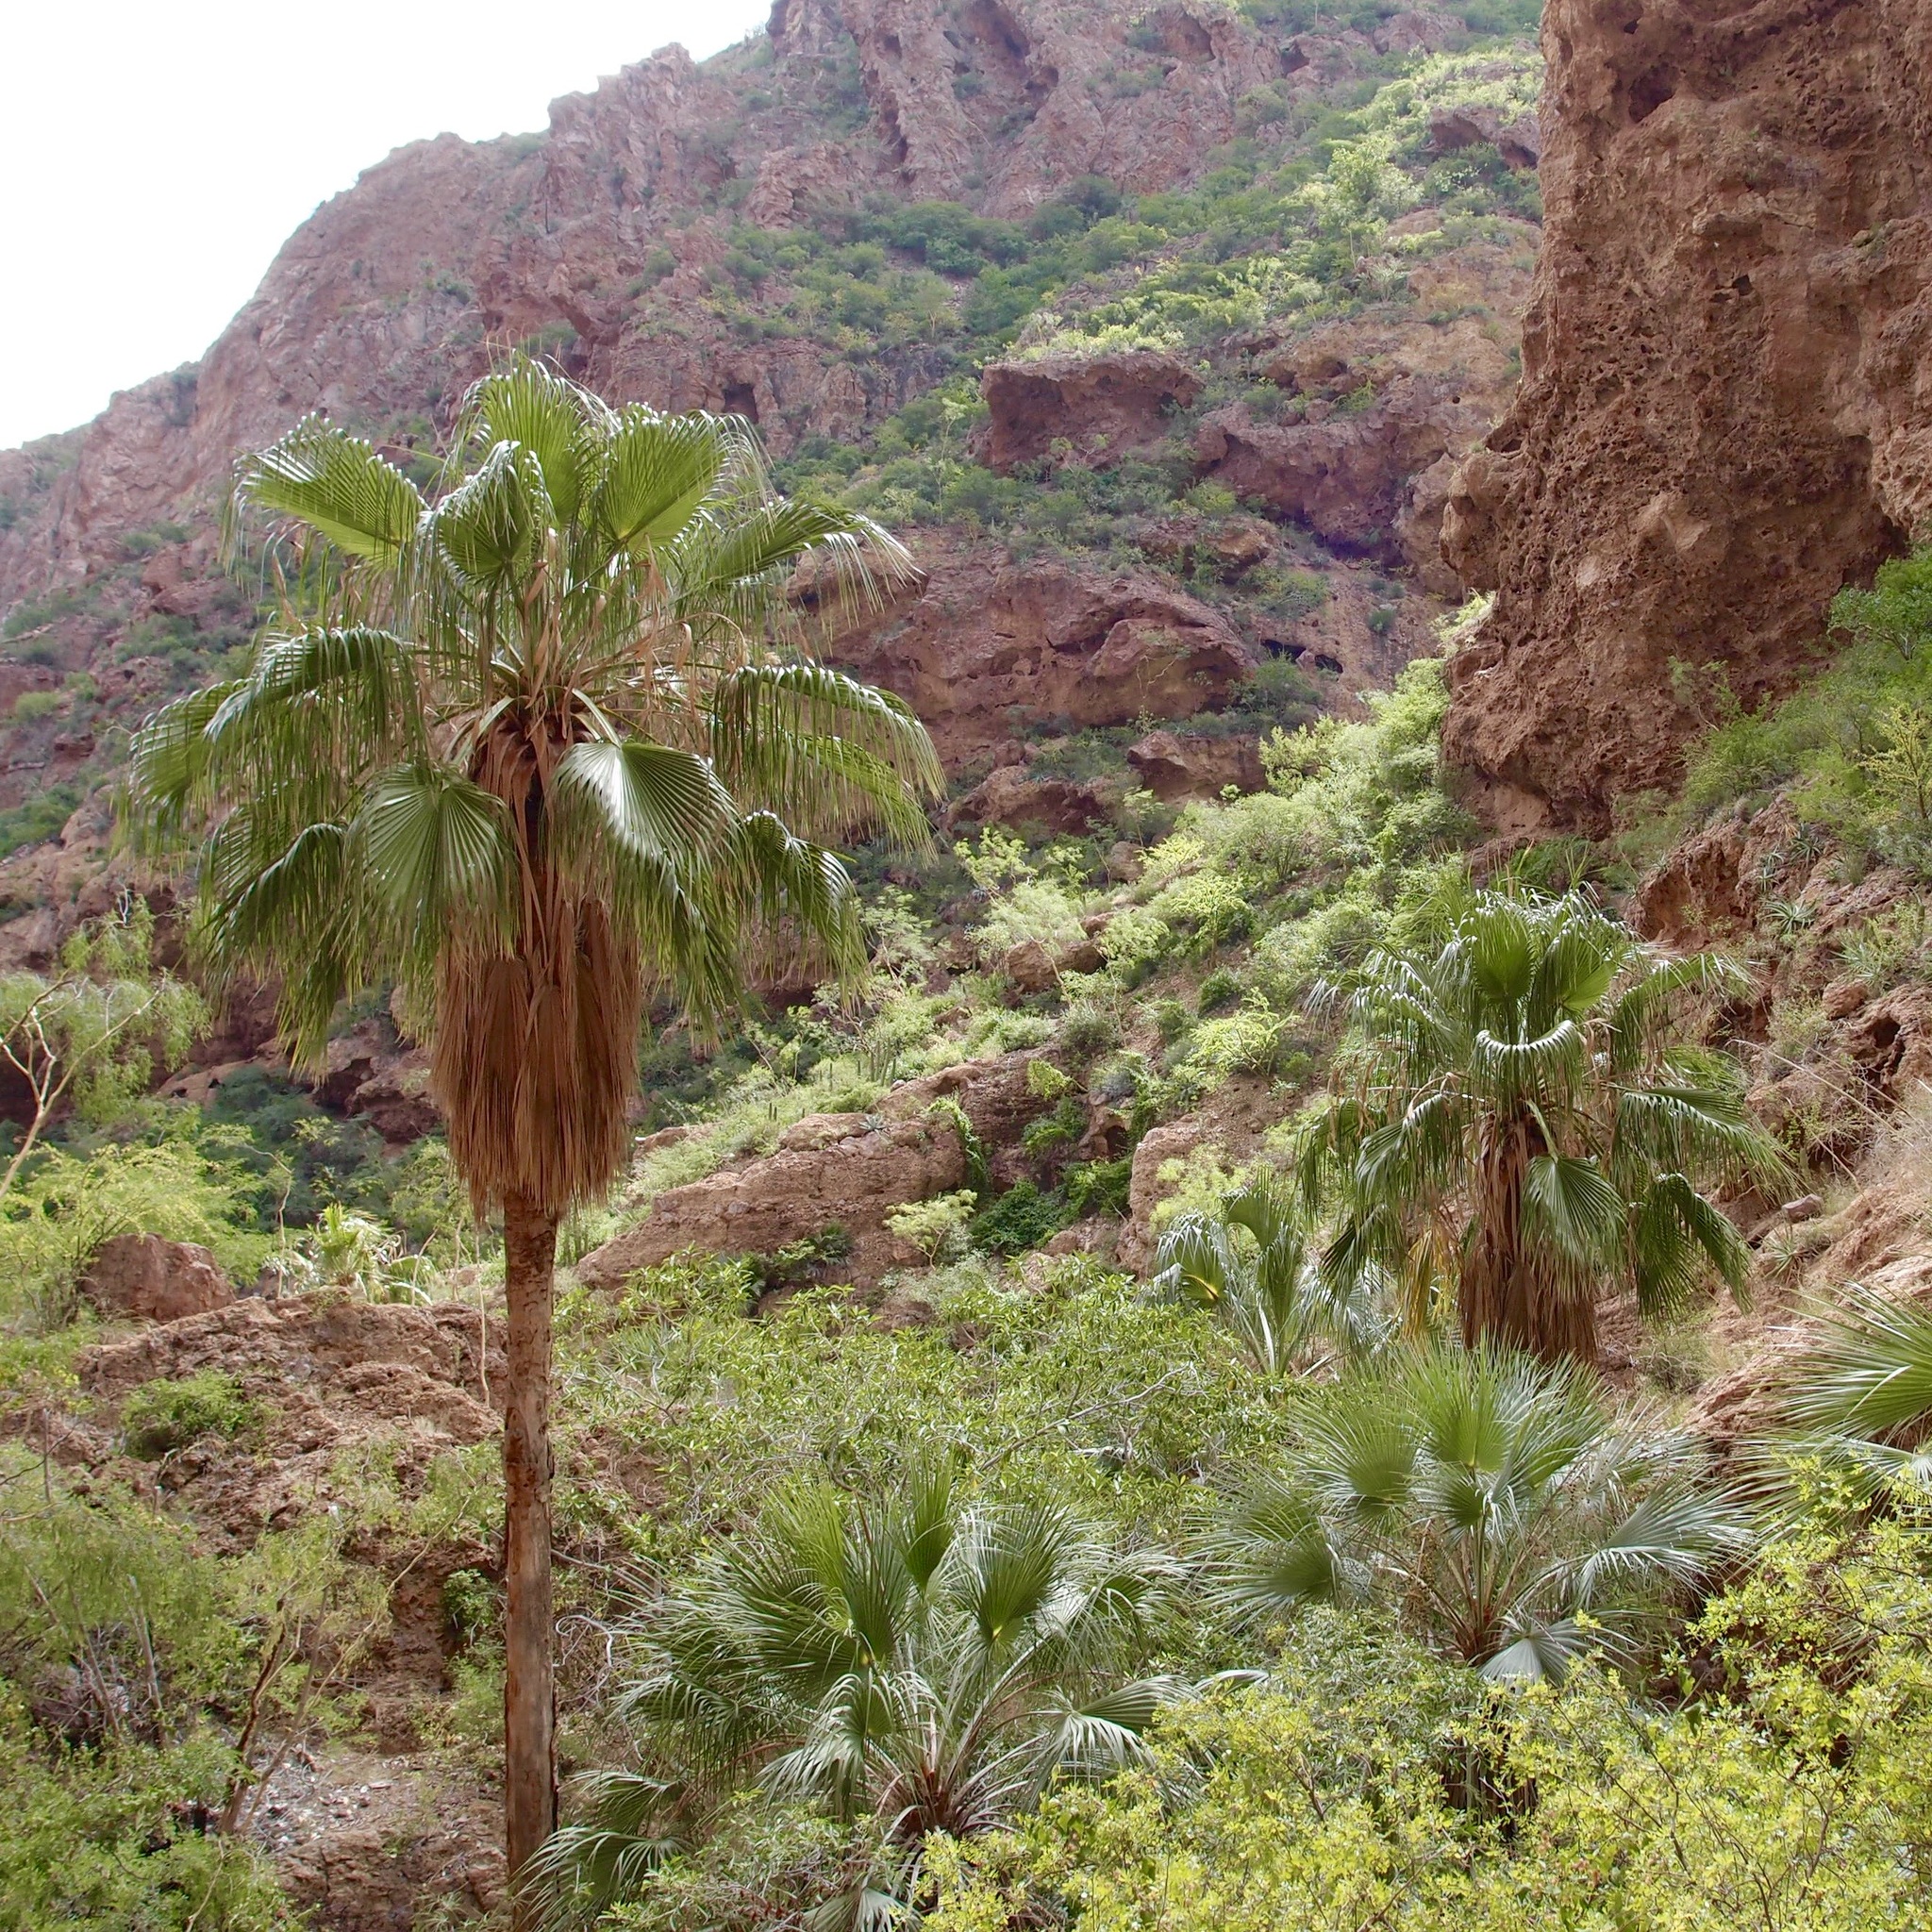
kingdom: Plantae
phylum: Tracheophyta
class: Liliopsida
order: Arecales
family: Arecaceae
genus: Washingtonia
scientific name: Washingtonia robusta
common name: Mexican fan palm
